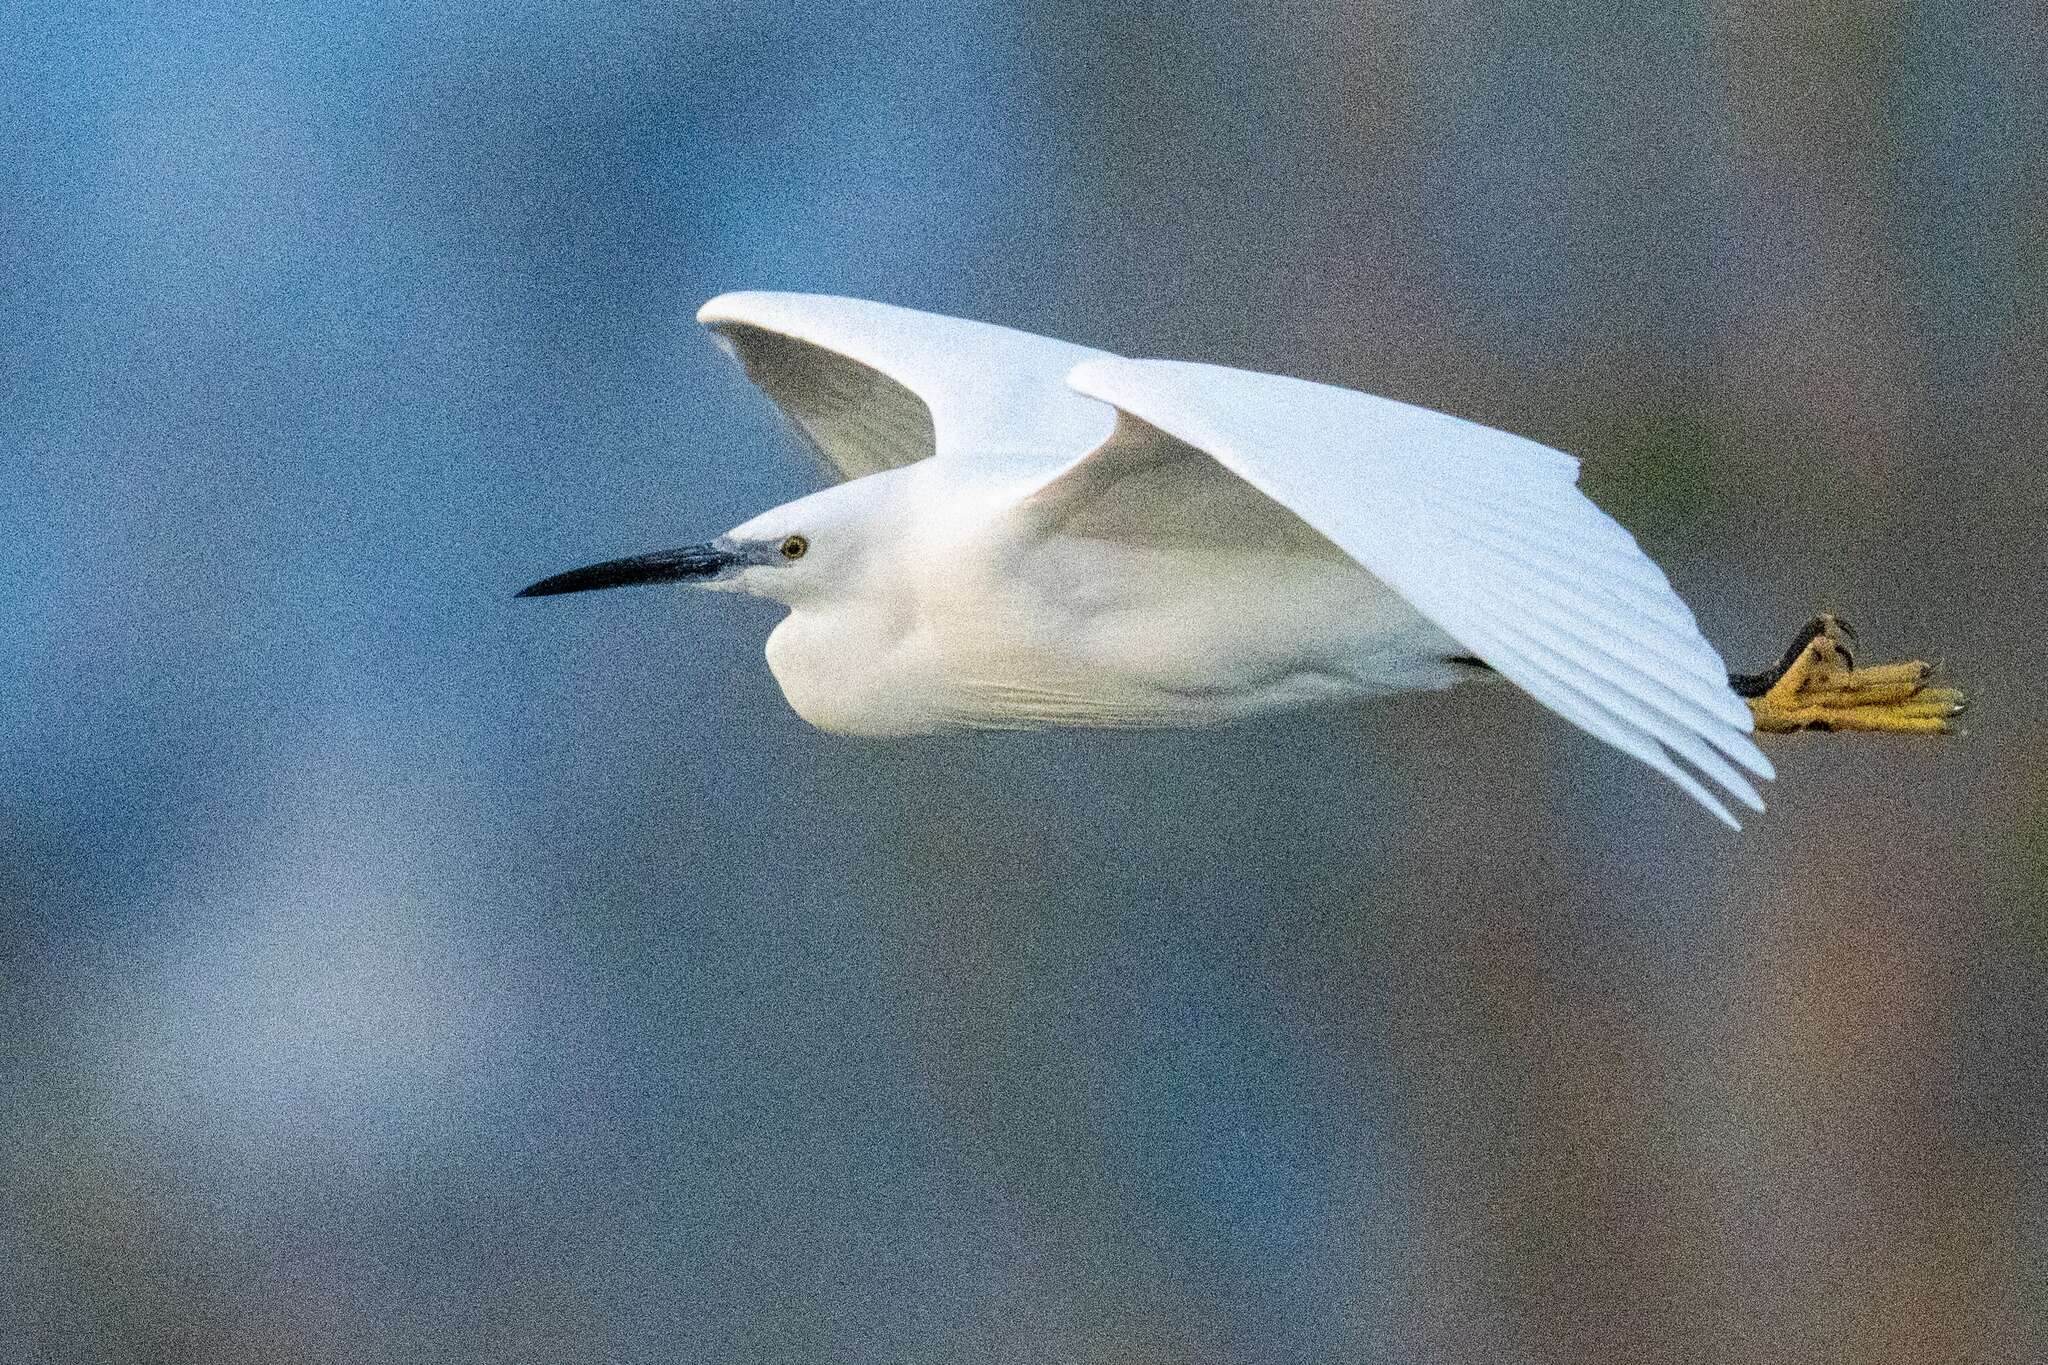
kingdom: Animalia
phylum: Chordata
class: Aves
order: Pelecaniformes
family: Ardeidae
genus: Egretta
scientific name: Egretta garzetta
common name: Little egret
